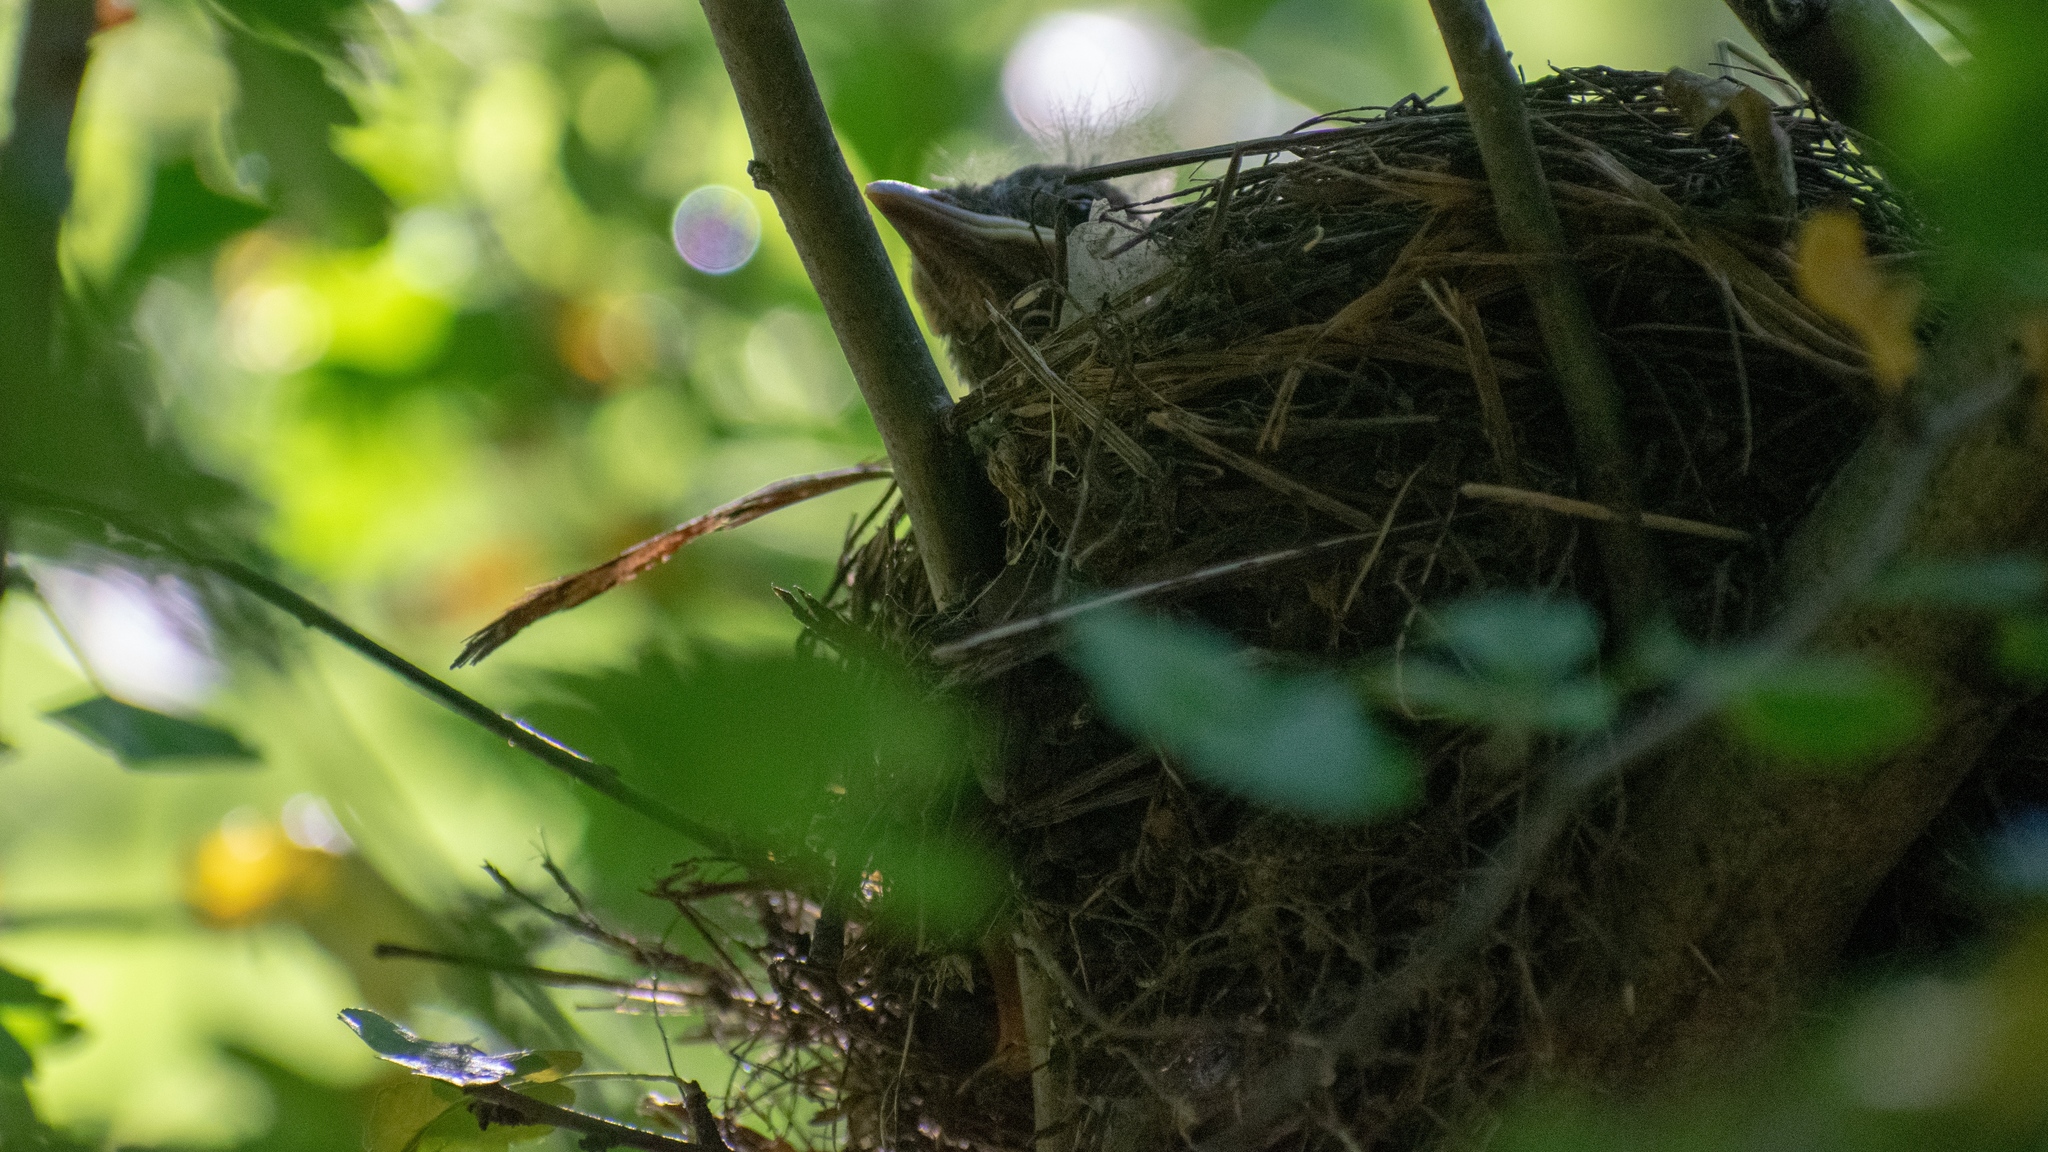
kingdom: Animalia
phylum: Chordata
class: Aves
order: Passeriformes
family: Turdidae
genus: Turdus
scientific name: Turdus merula
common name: Common blackbird
